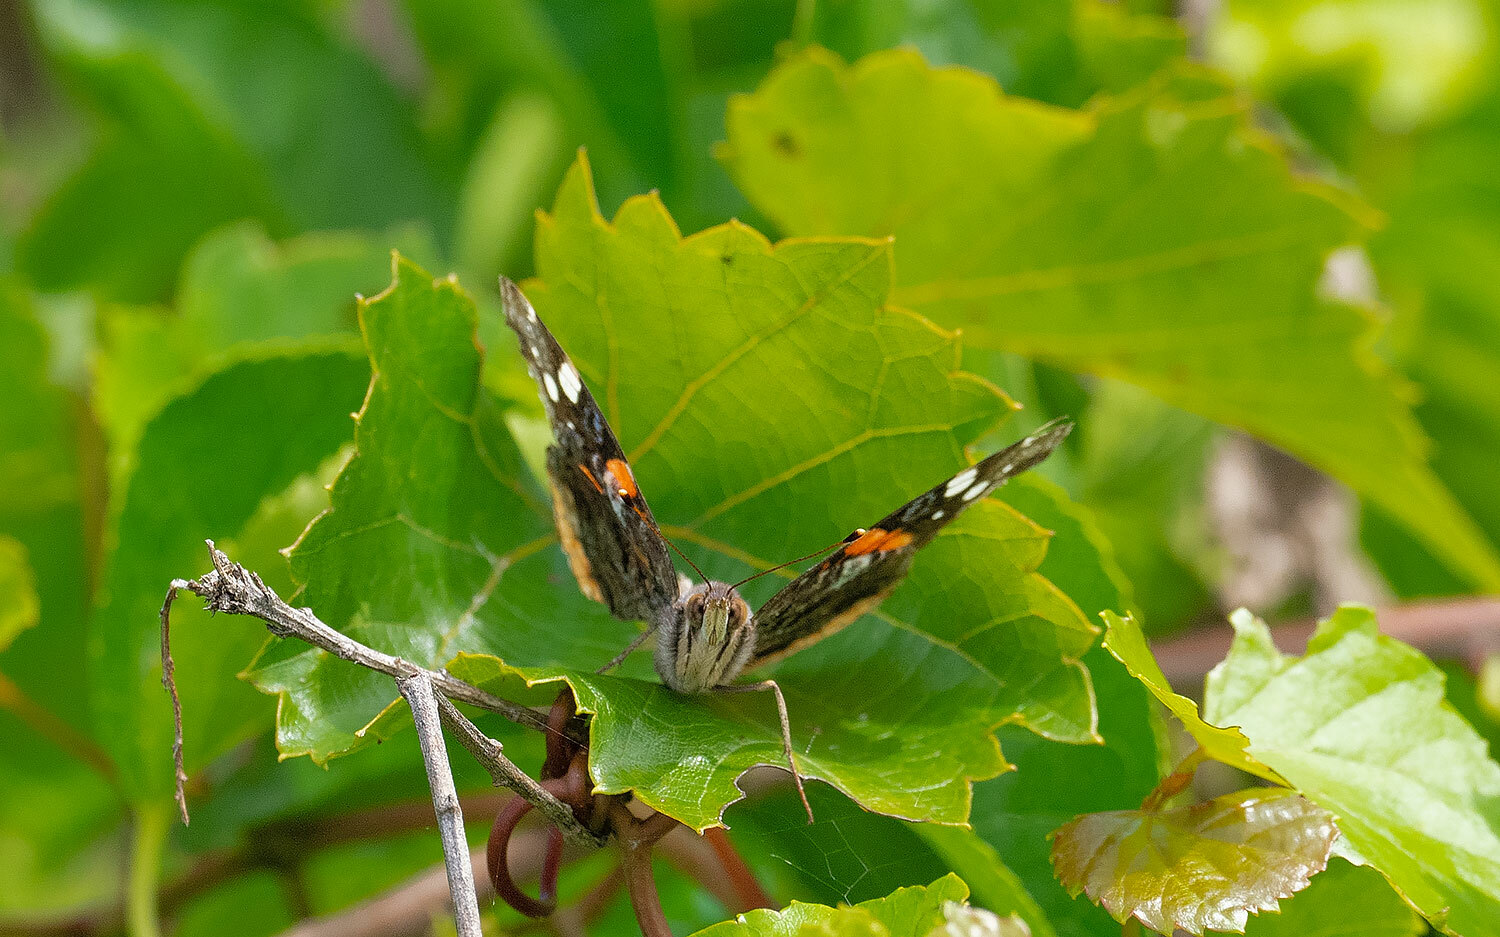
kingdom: Animalia
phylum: Arthropoda
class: Insecta
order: Lepidoptera
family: Nymphalidae
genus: Vanessa
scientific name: Vanessa atalanta
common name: Red admiral
